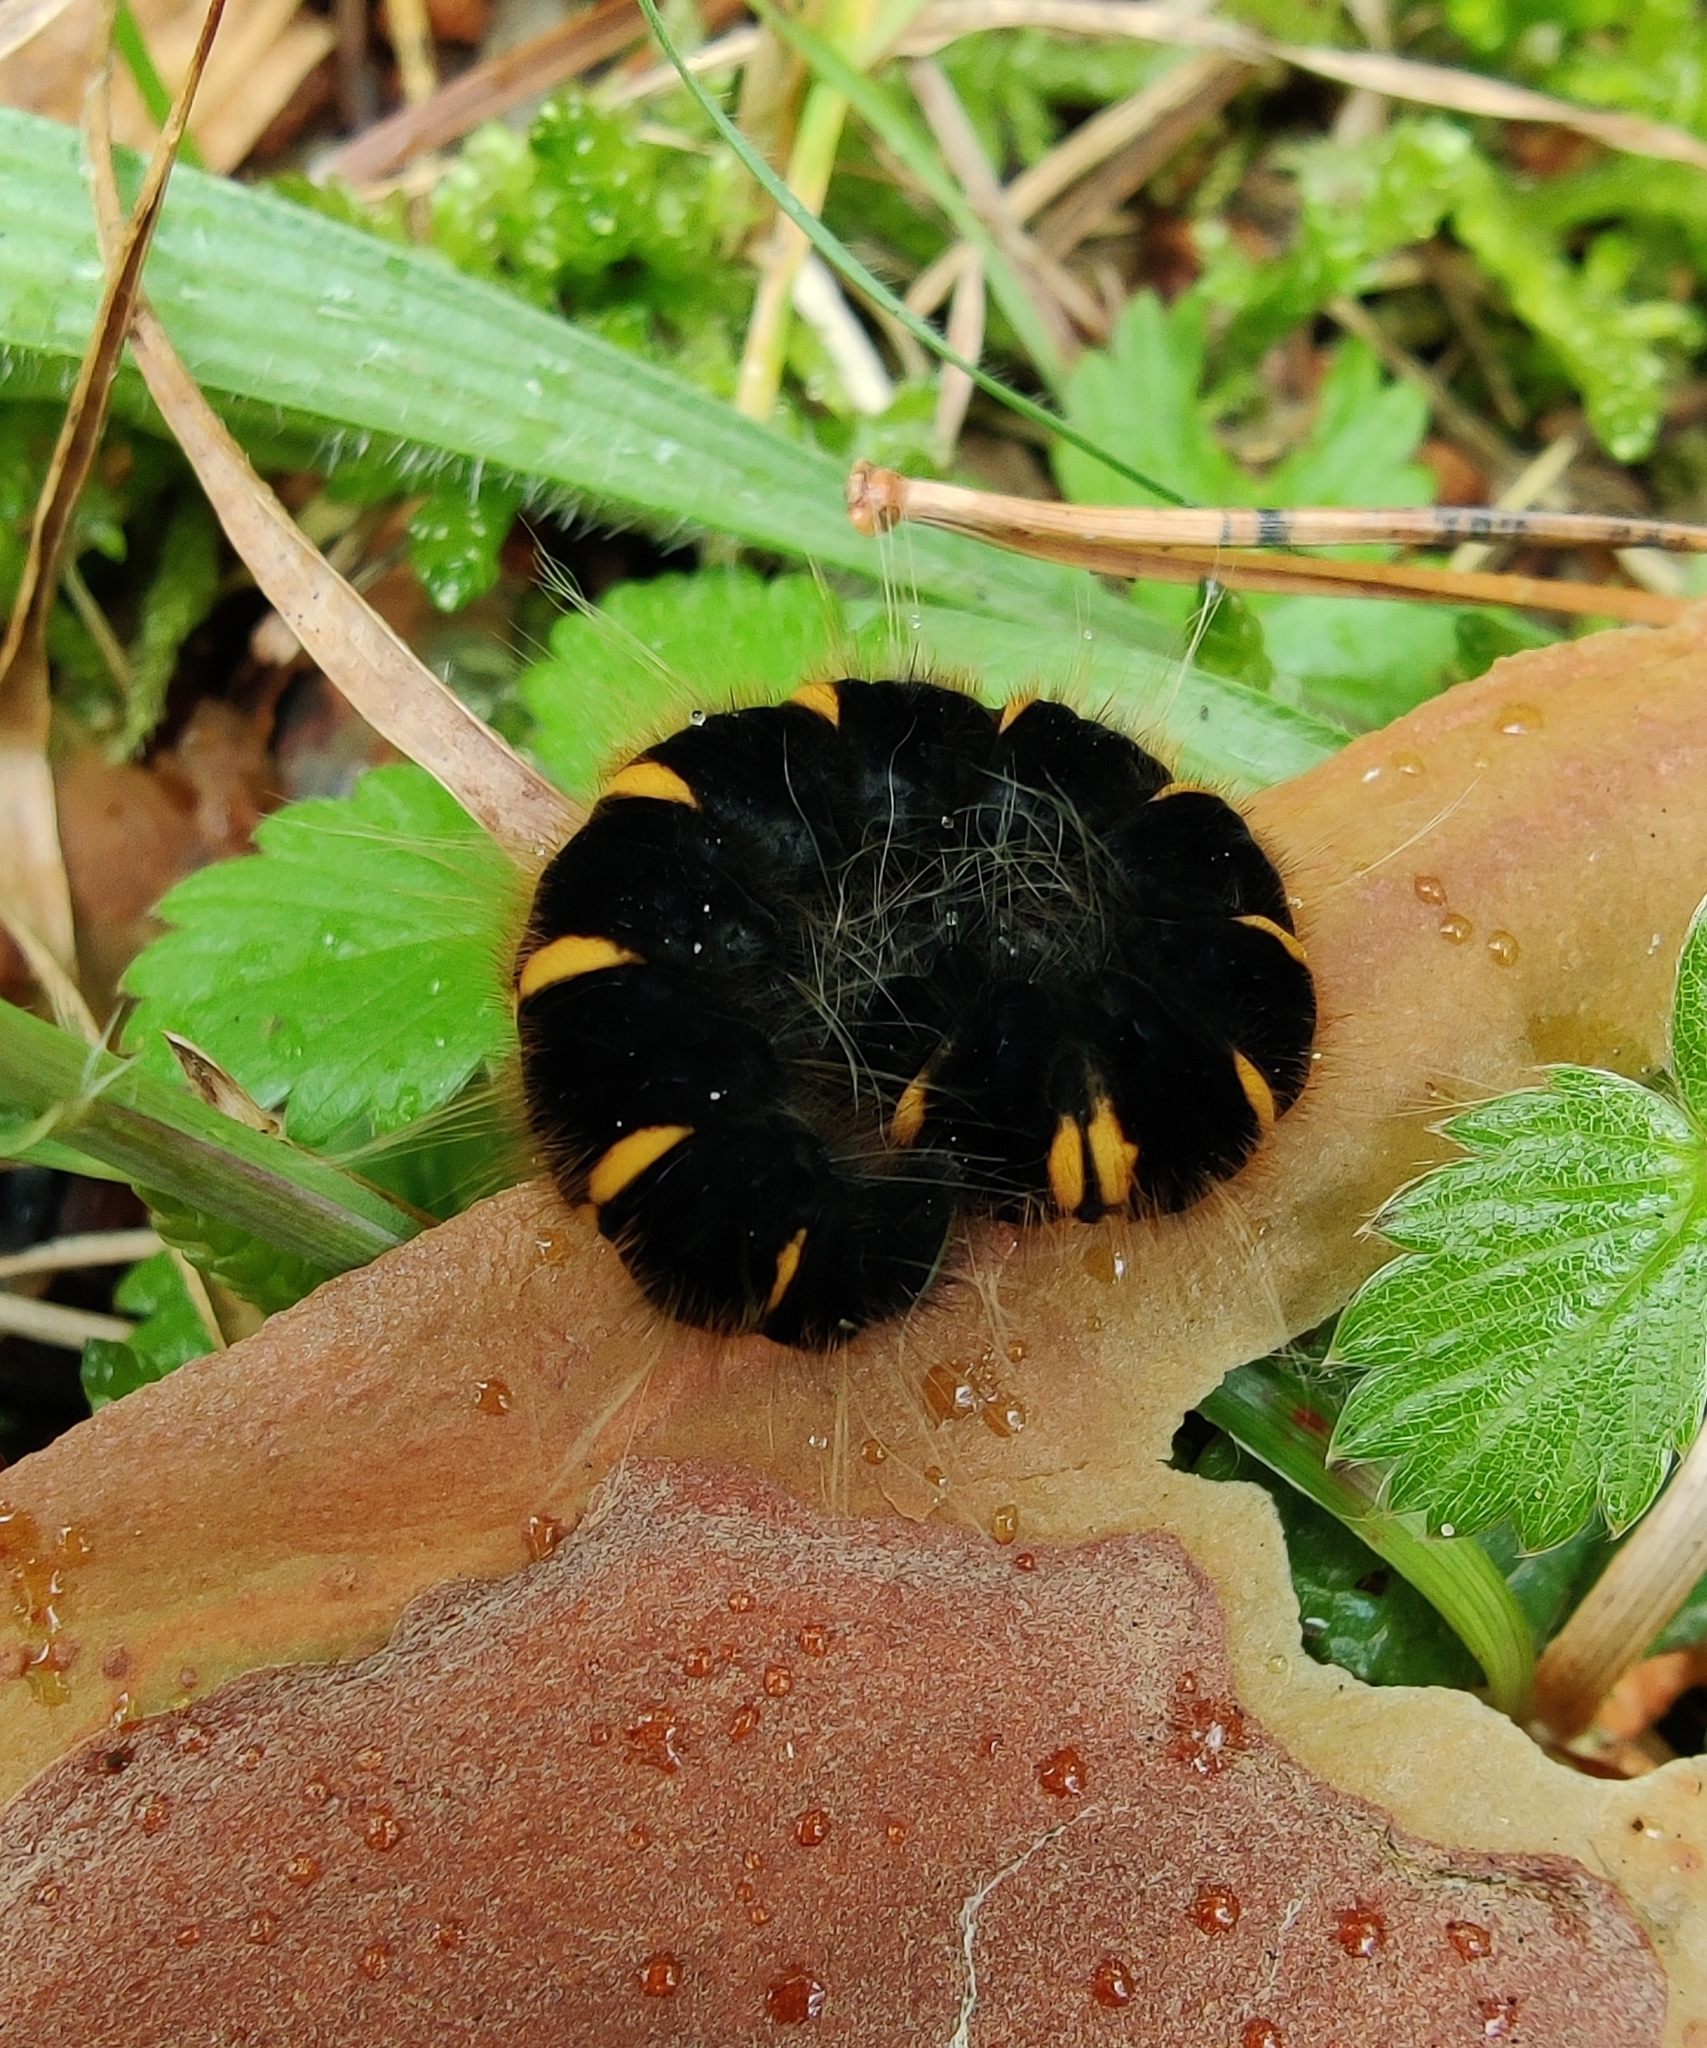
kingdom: Animalia
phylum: Arthropoda
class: Insecta
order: Lepidoptera
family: Lasiocampidae
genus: Macrothylacia
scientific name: Macrothylacia rubi
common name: Fox moth
